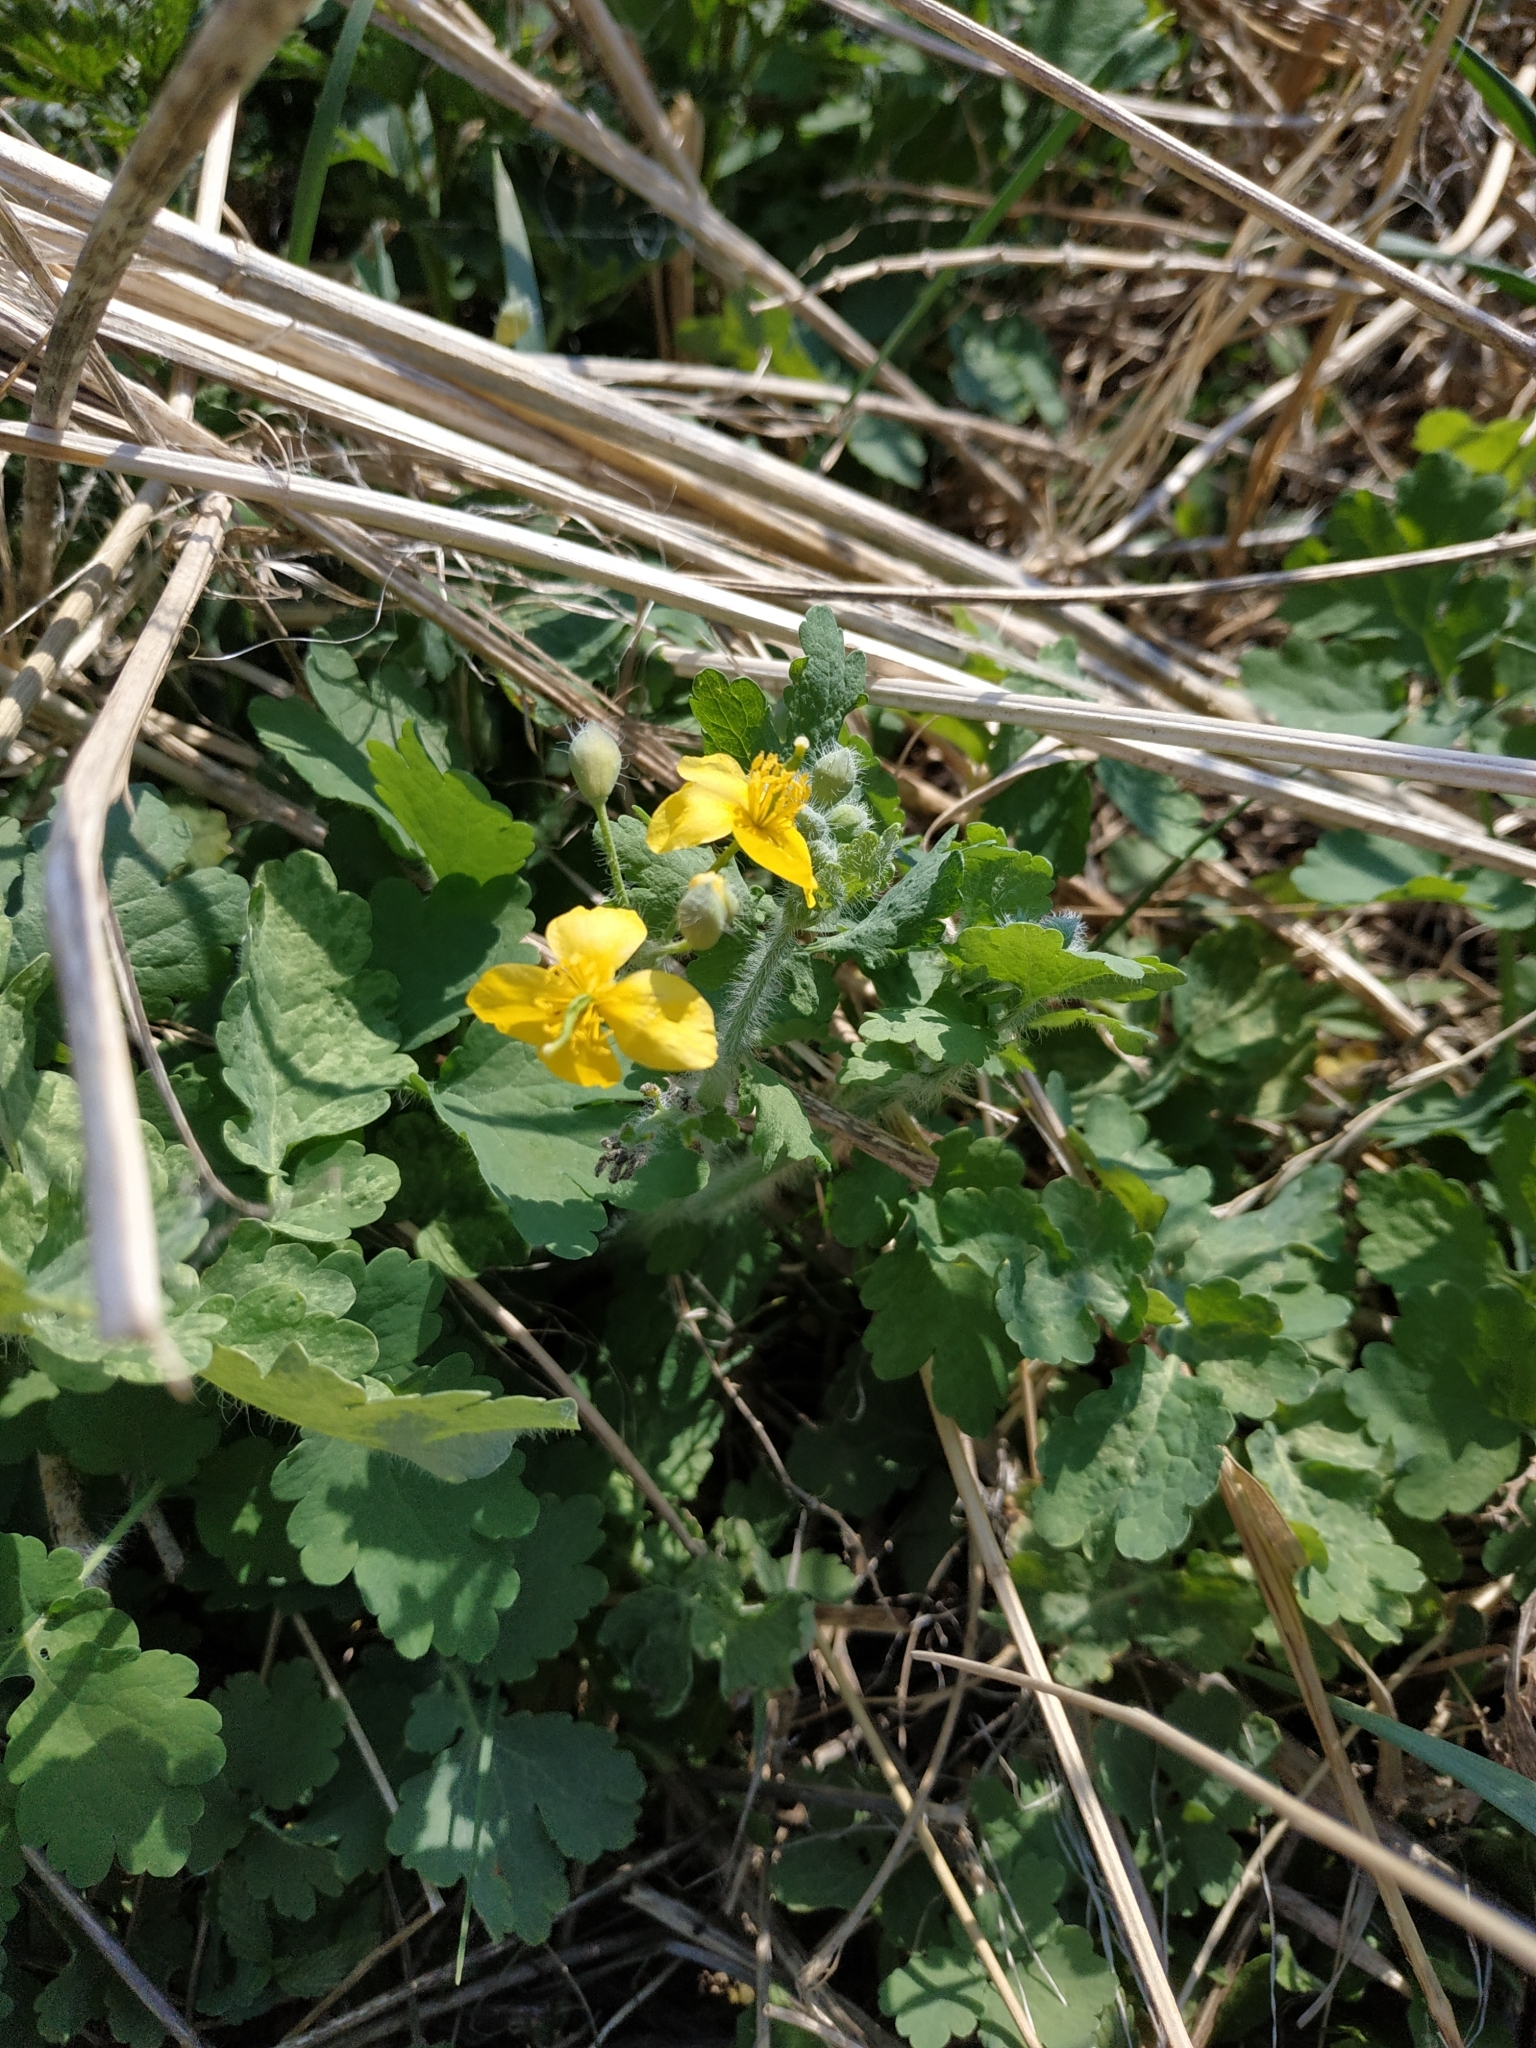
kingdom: Plantae
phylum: Tracheophyta
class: Magnoliopsida
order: Ranunculales
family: Papaveraceae
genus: Chelidonium
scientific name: Chelidonium majus
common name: Greater celandine
